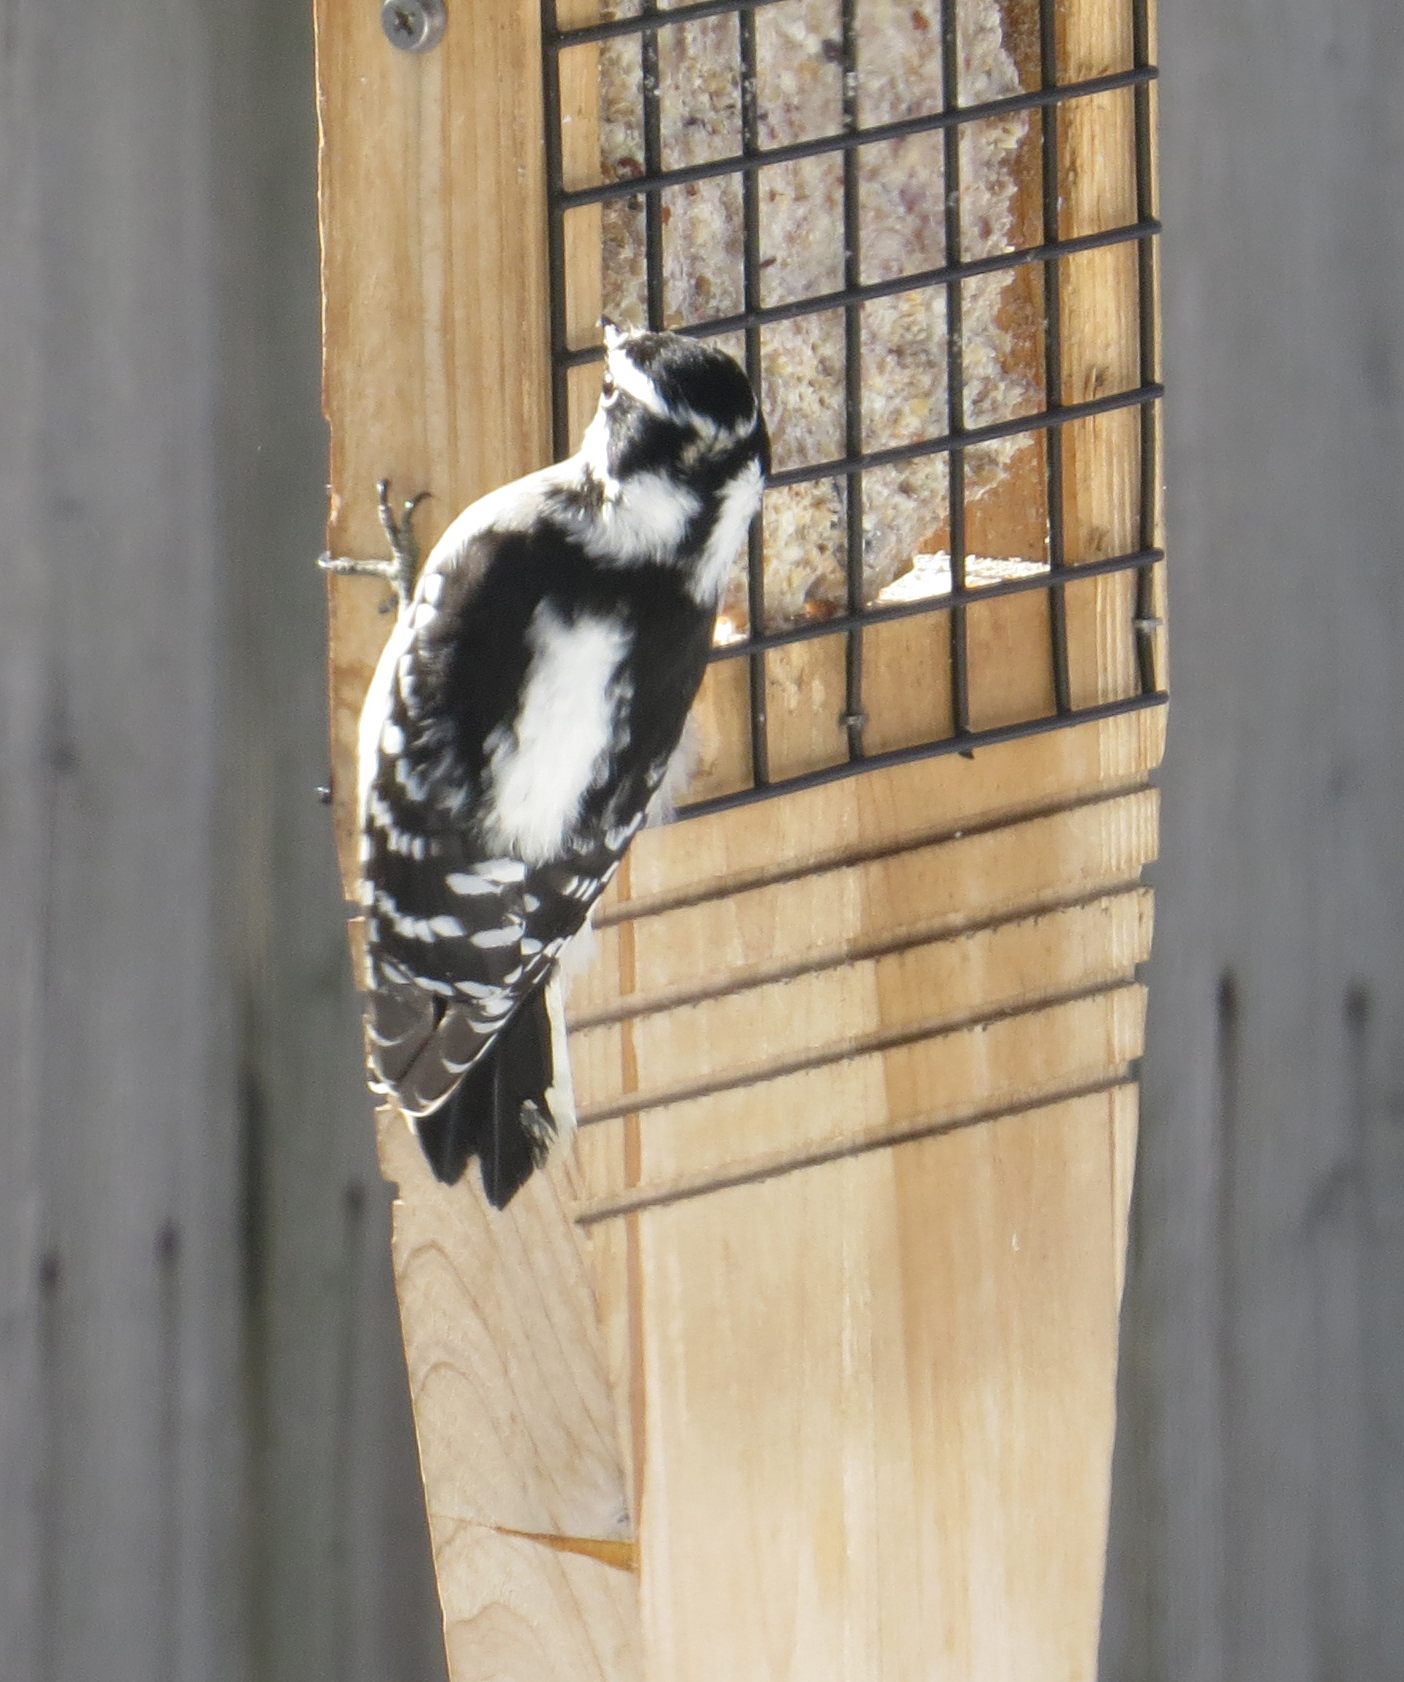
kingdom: Animalia
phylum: Chordata
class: Aves
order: Piciformes
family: Picidae
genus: Dryobates
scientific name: Dryobates pubescens
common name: Downy woodpecker
